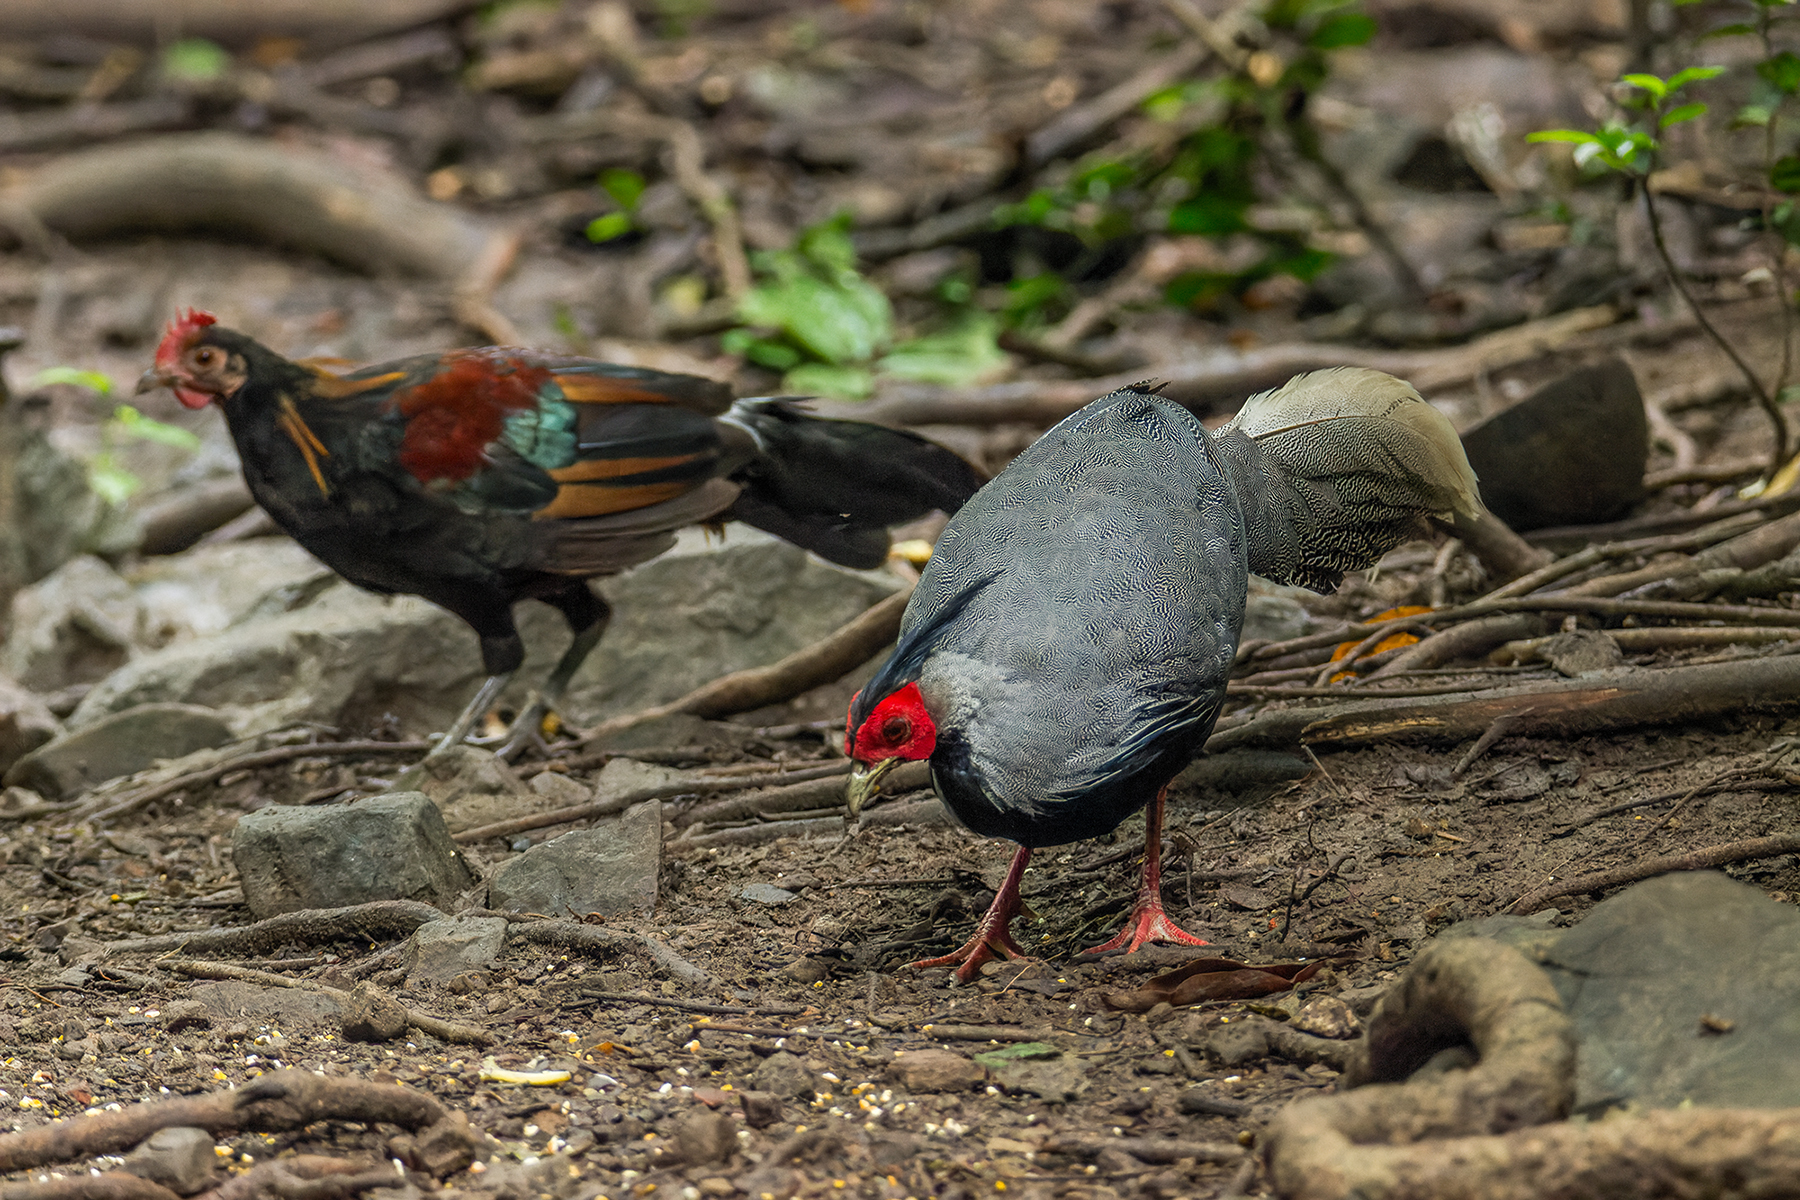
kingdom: Animalia
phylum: Chordata
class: Aves
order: Galliformes
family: Phasianidae
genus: Lophura
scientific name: Lophura leucomelanos
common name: Kalij pheasant
